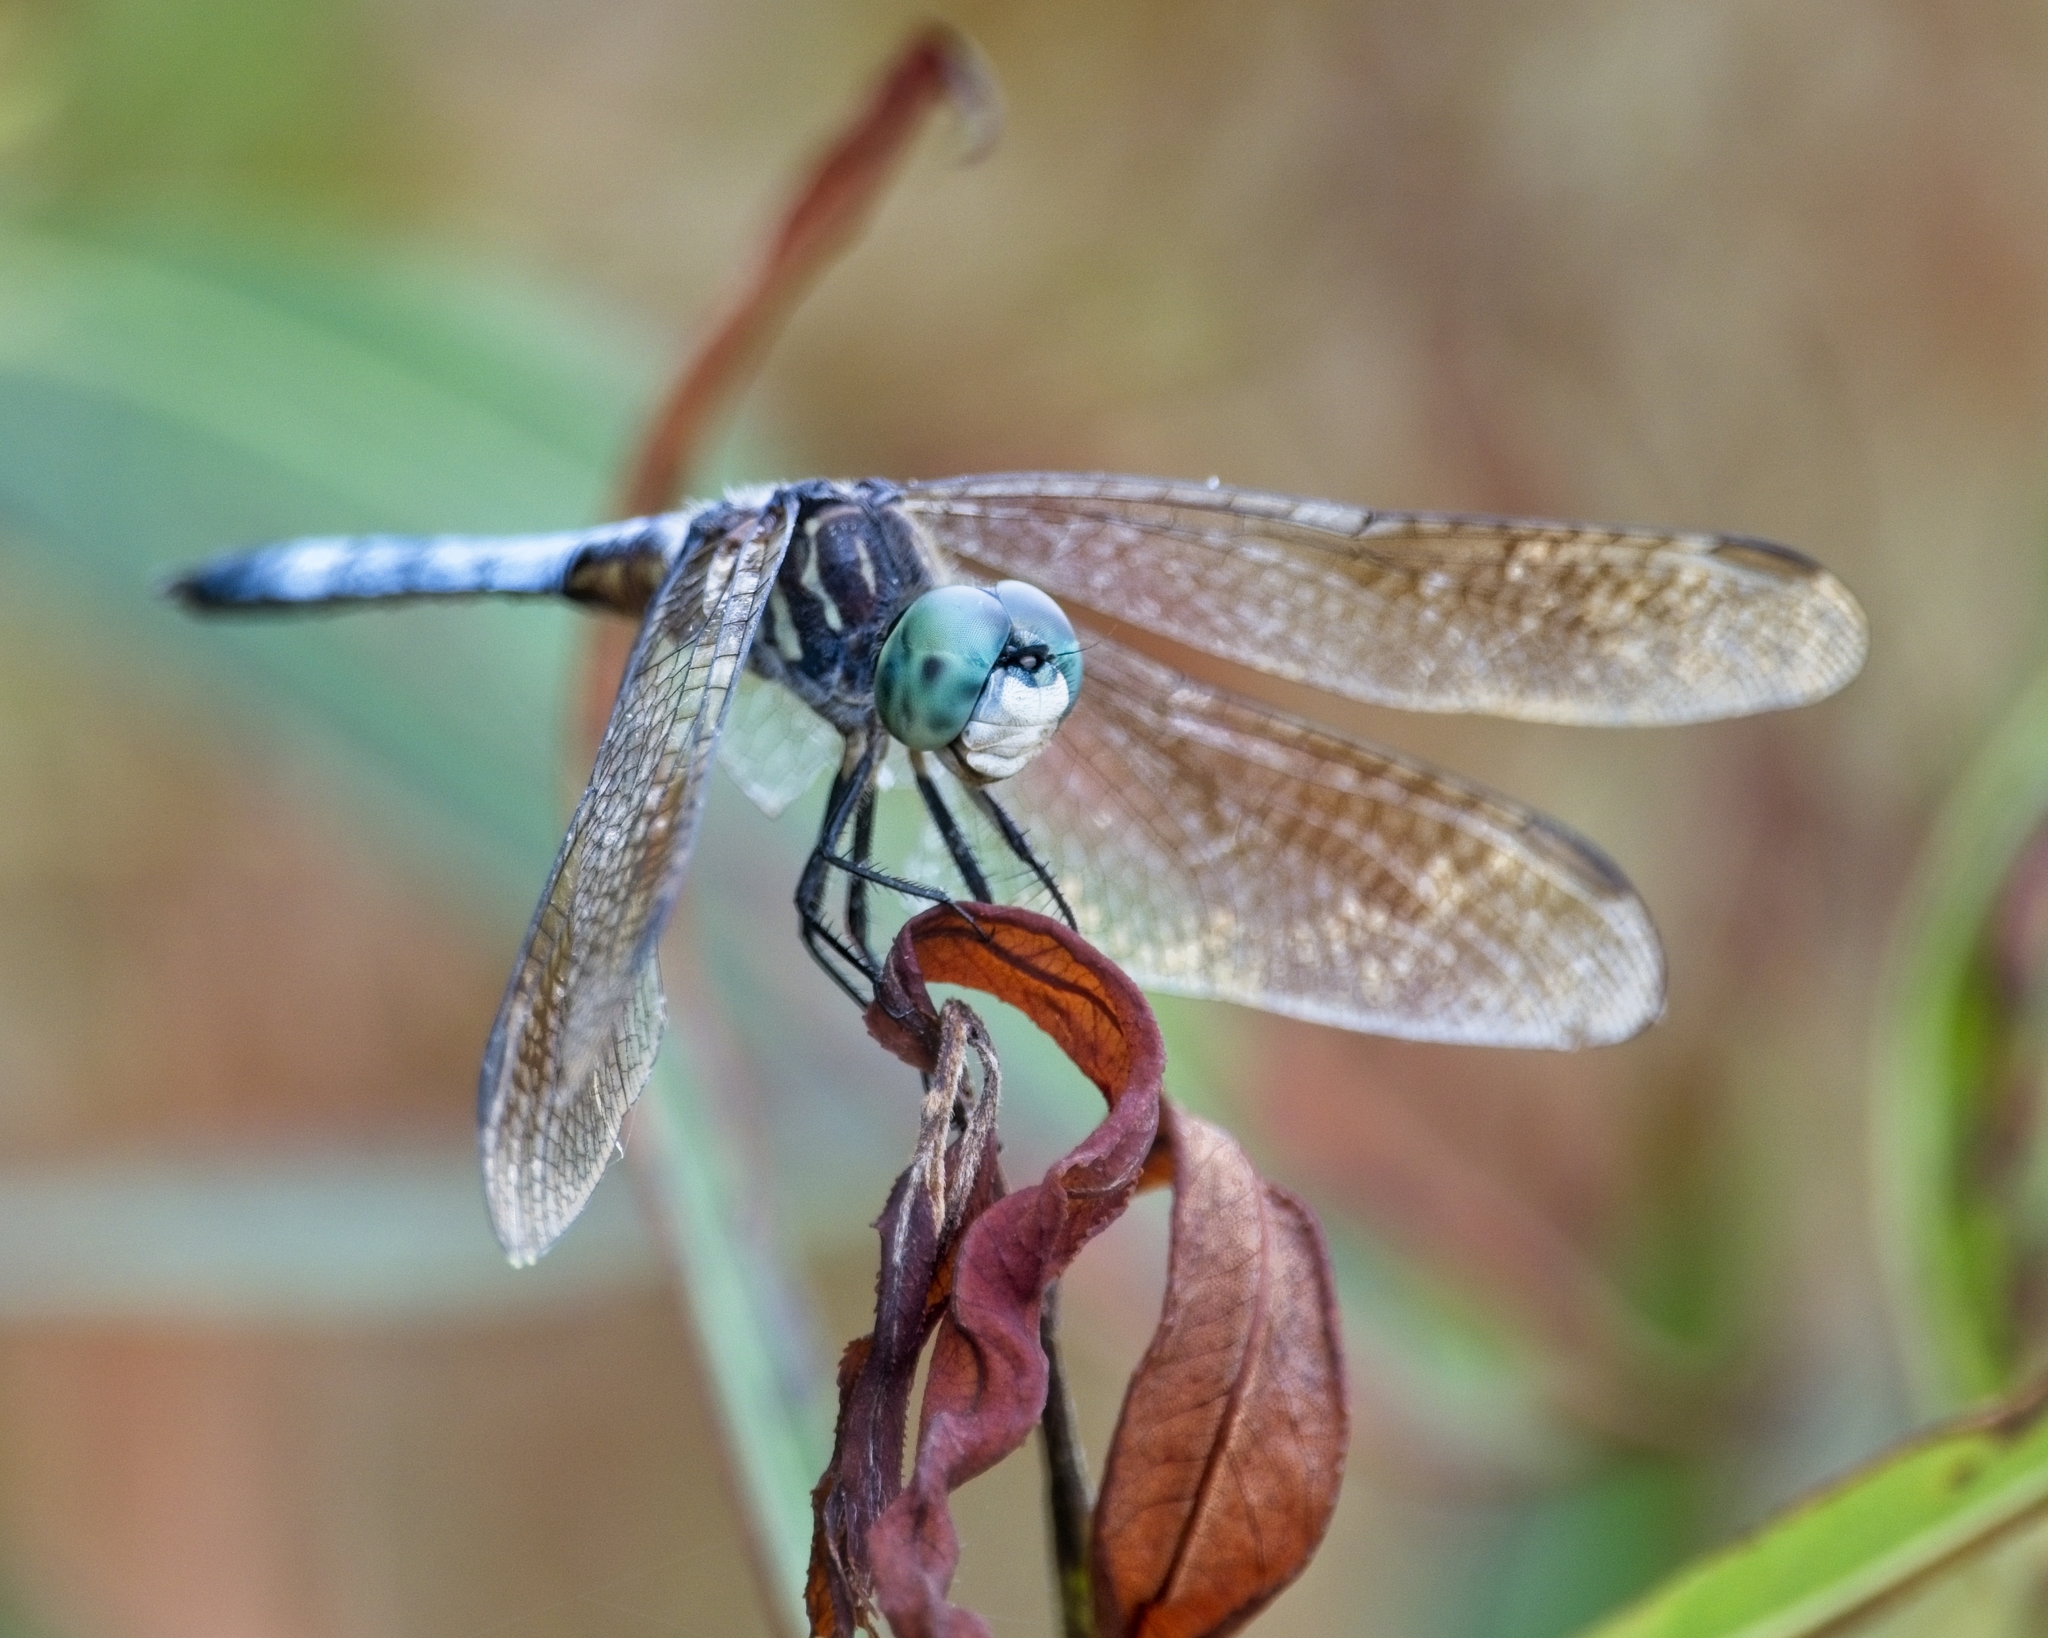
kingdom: Animalia
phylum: Arthropoda
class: Insecta
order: Odonata
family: Libellulidae
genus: Pachydiplax
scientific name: Pachydiplax longipennis
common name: Blue dasher
